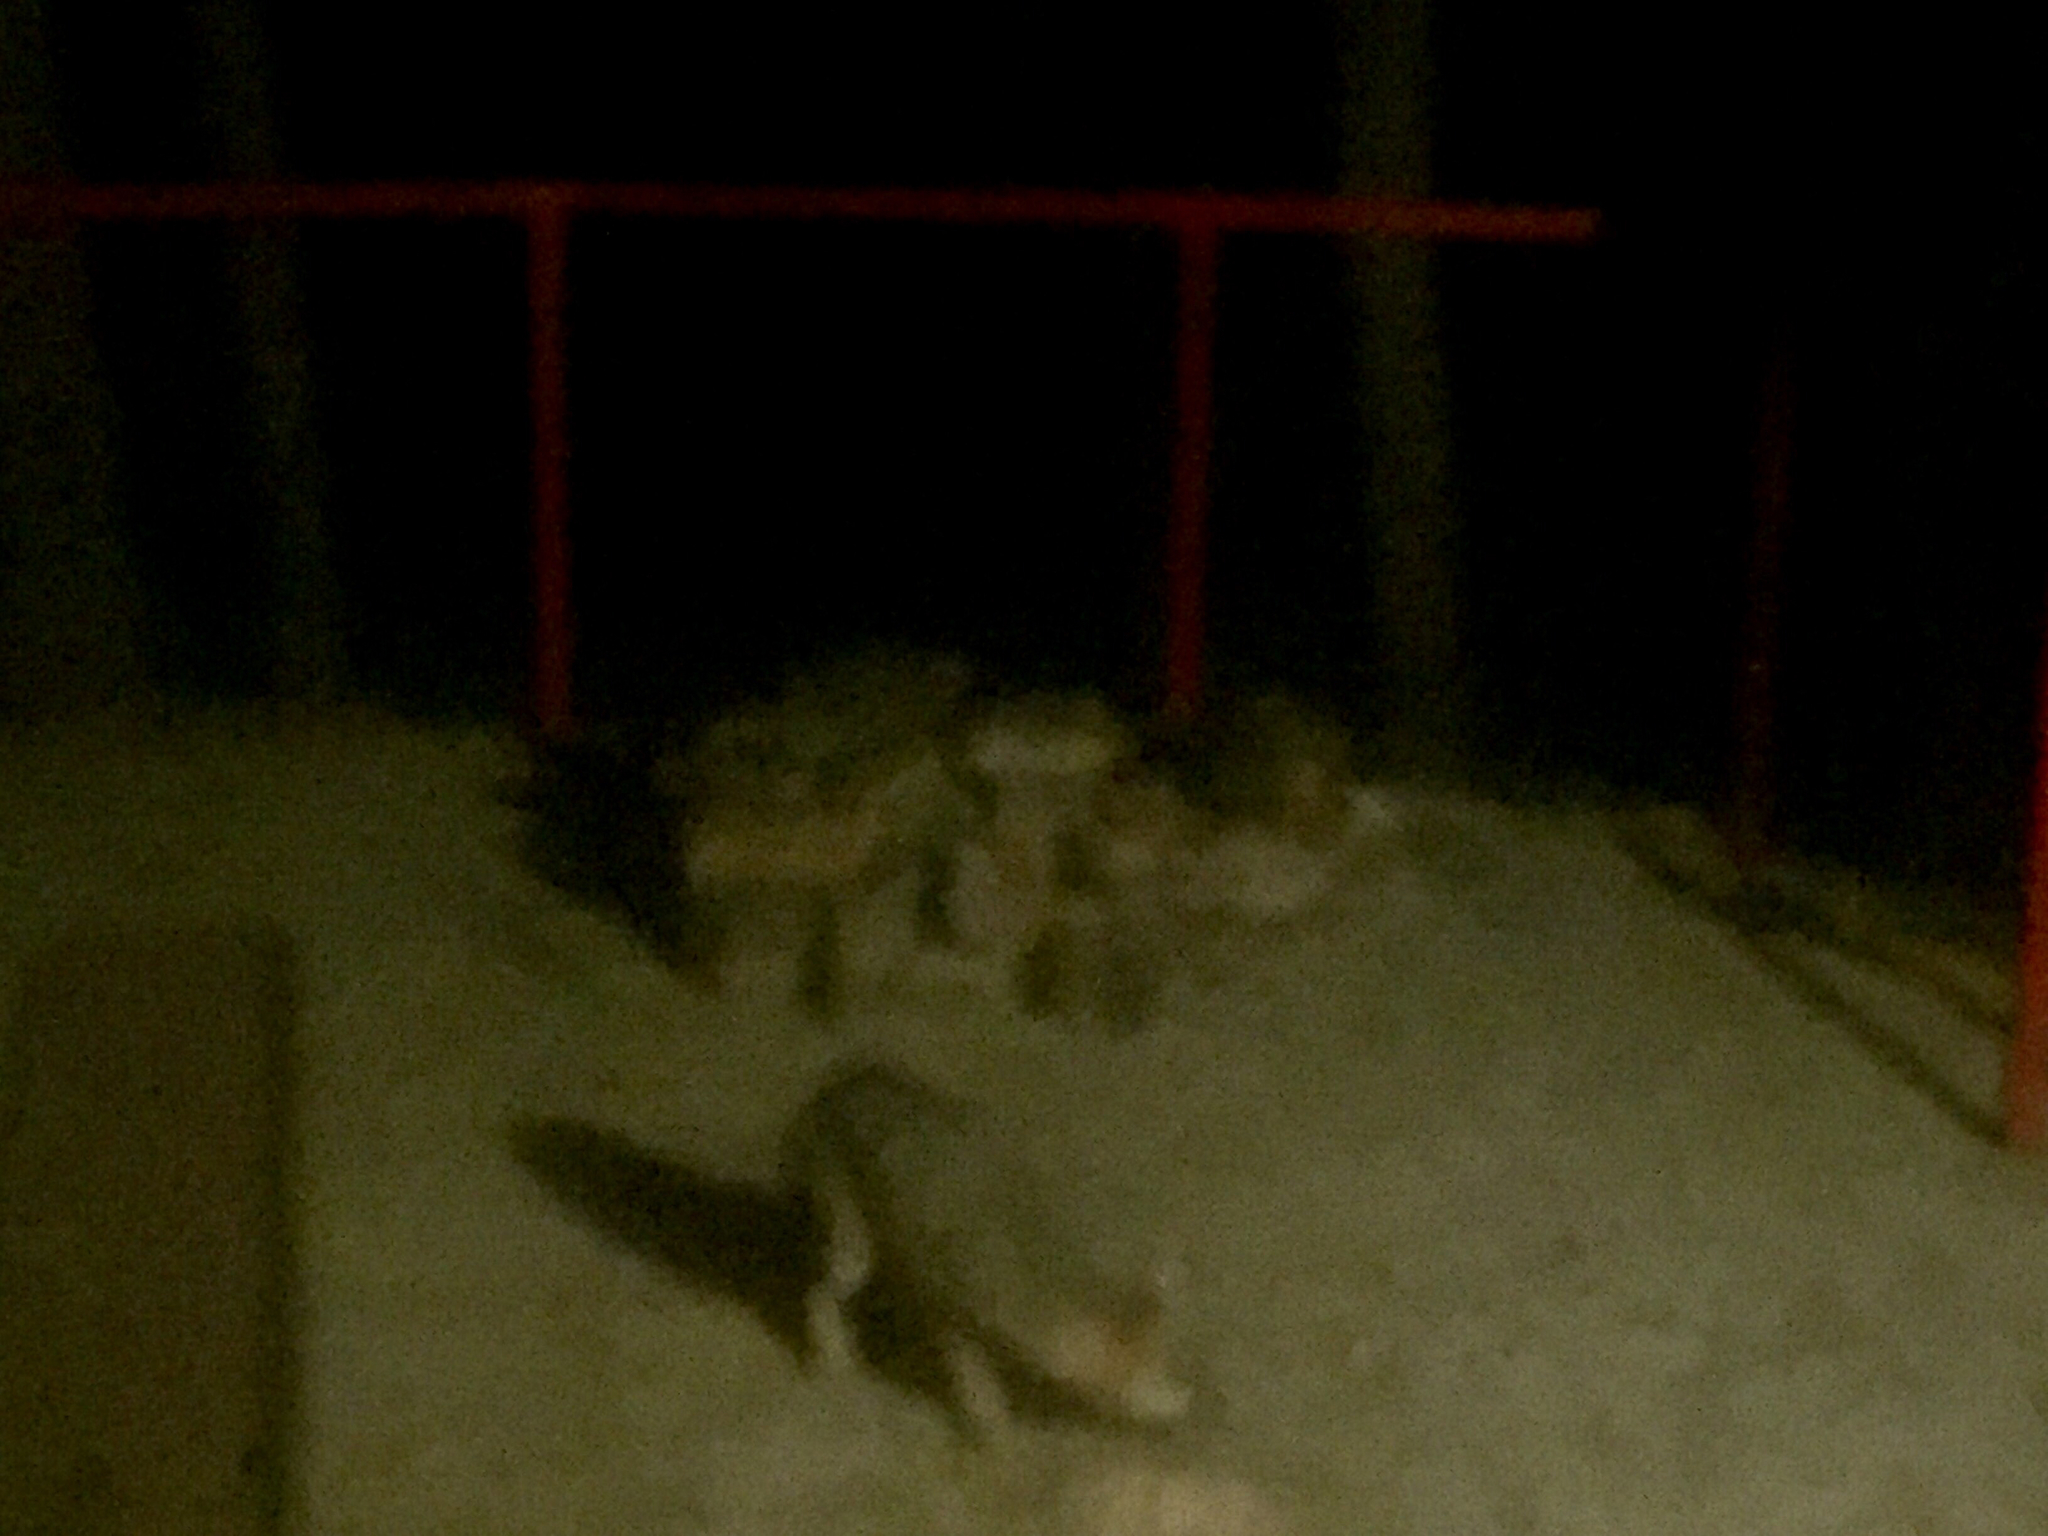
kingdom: Animalia
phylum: Chordata
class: Mammalia
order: Carnivora
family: Canidae
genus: Urocyon
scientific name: Urocyon cinereoargenteus
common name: Gray fox
